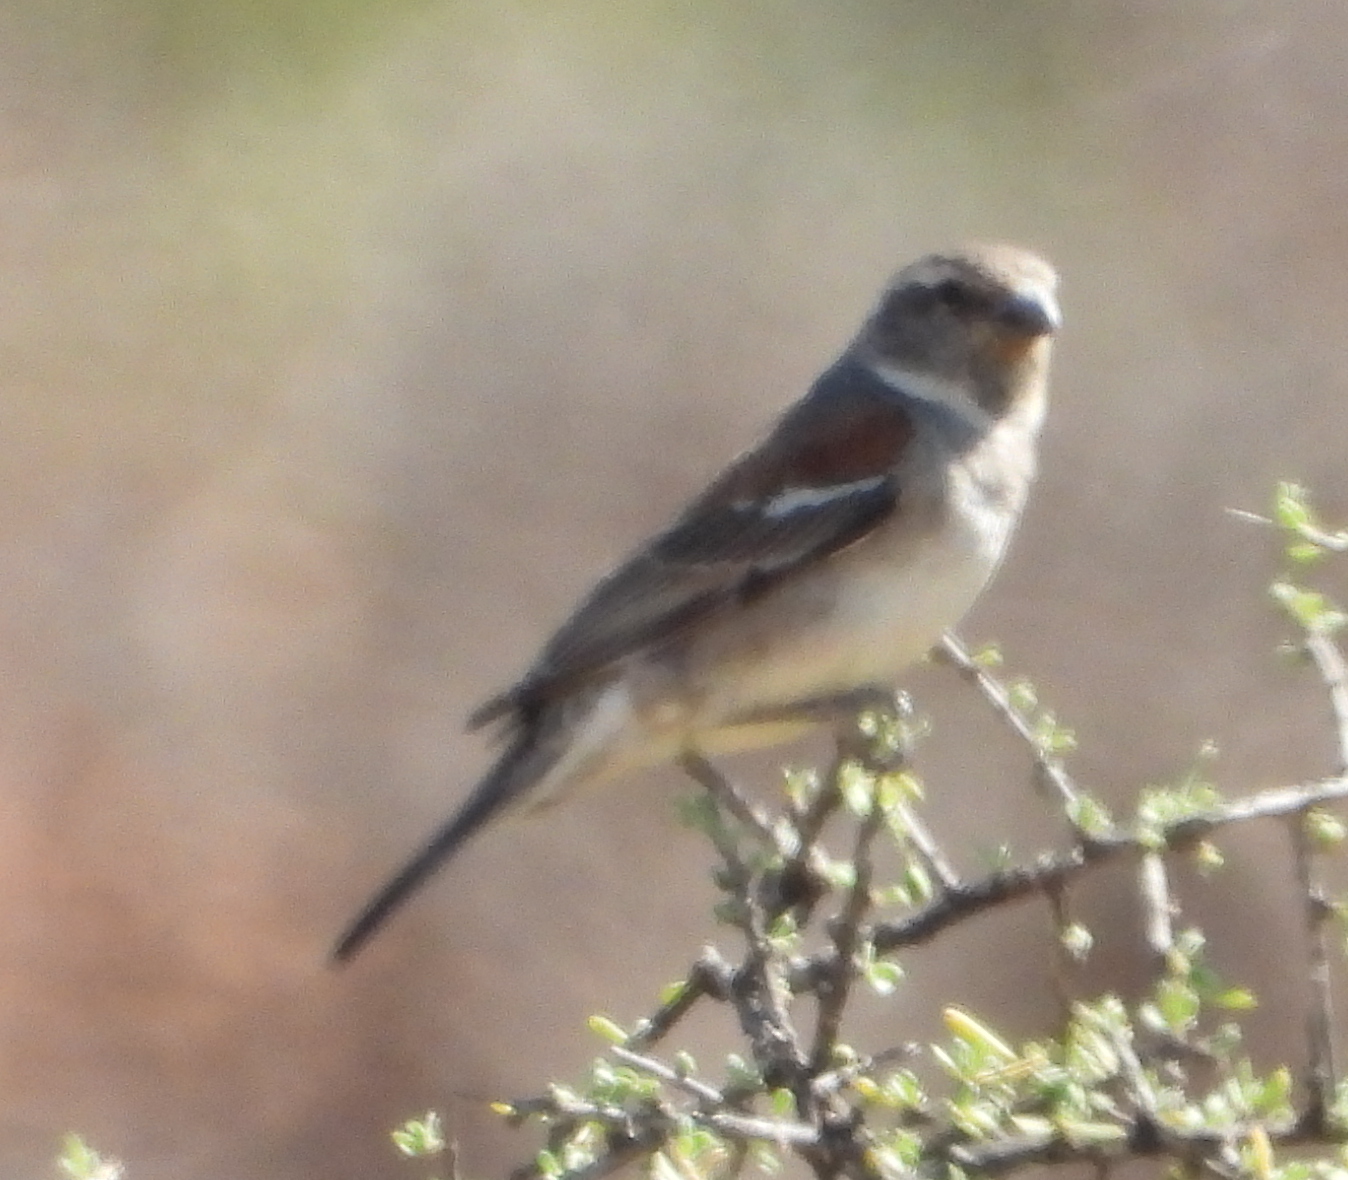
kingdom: Animalia
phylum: Chordata
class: Aves
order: Passeriformes
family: Passeridae
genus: Passer
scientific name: Passer melanurus
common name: Cape sparrow
